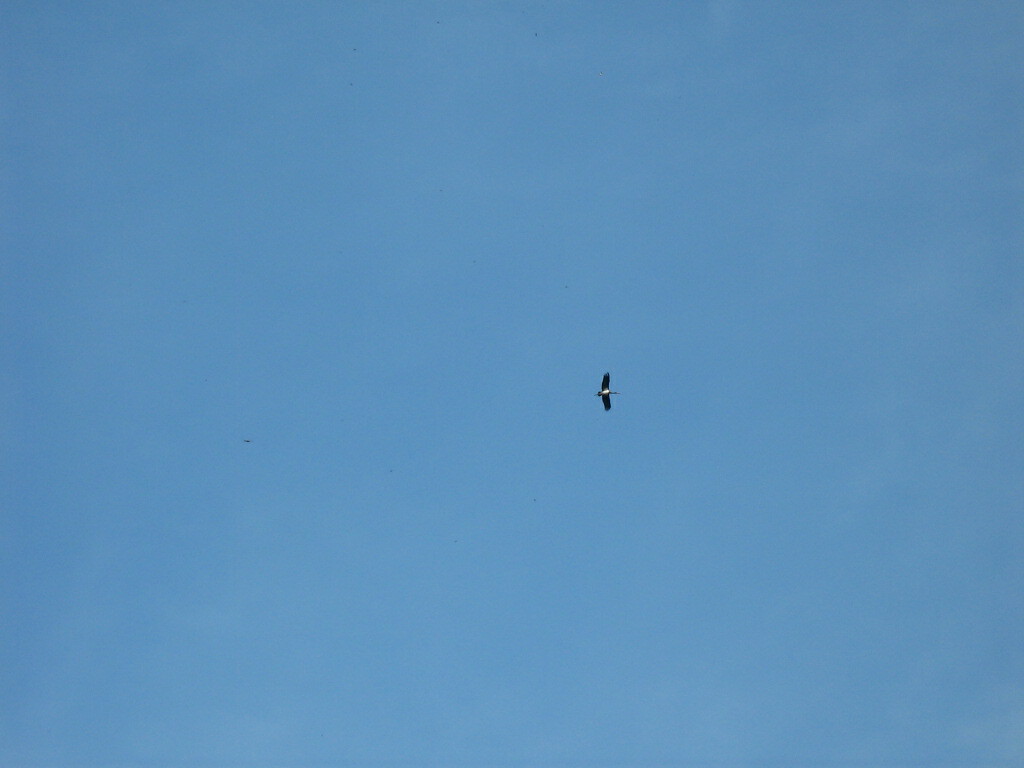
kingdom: Animalia
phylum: Chordata
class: Aves
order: Ciconiiformes
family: Ciconiidae
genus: Ciconia
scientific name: Ciconia nigra
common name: Black stork
